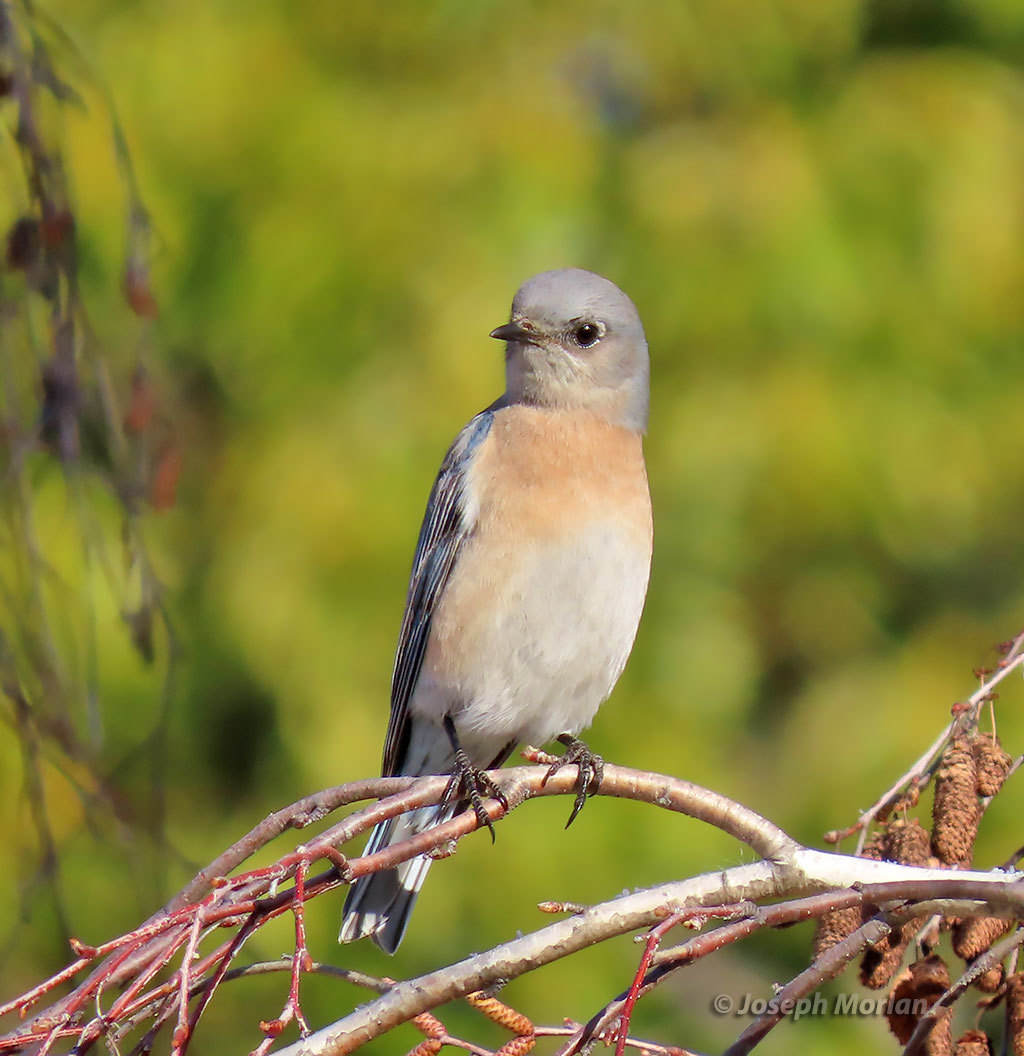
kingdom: Animalia
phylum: Chordata
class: Aves
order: Passeriformes
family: Turdidae
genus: Sialia
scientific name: Sialia mexicana
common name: Western bluebird
